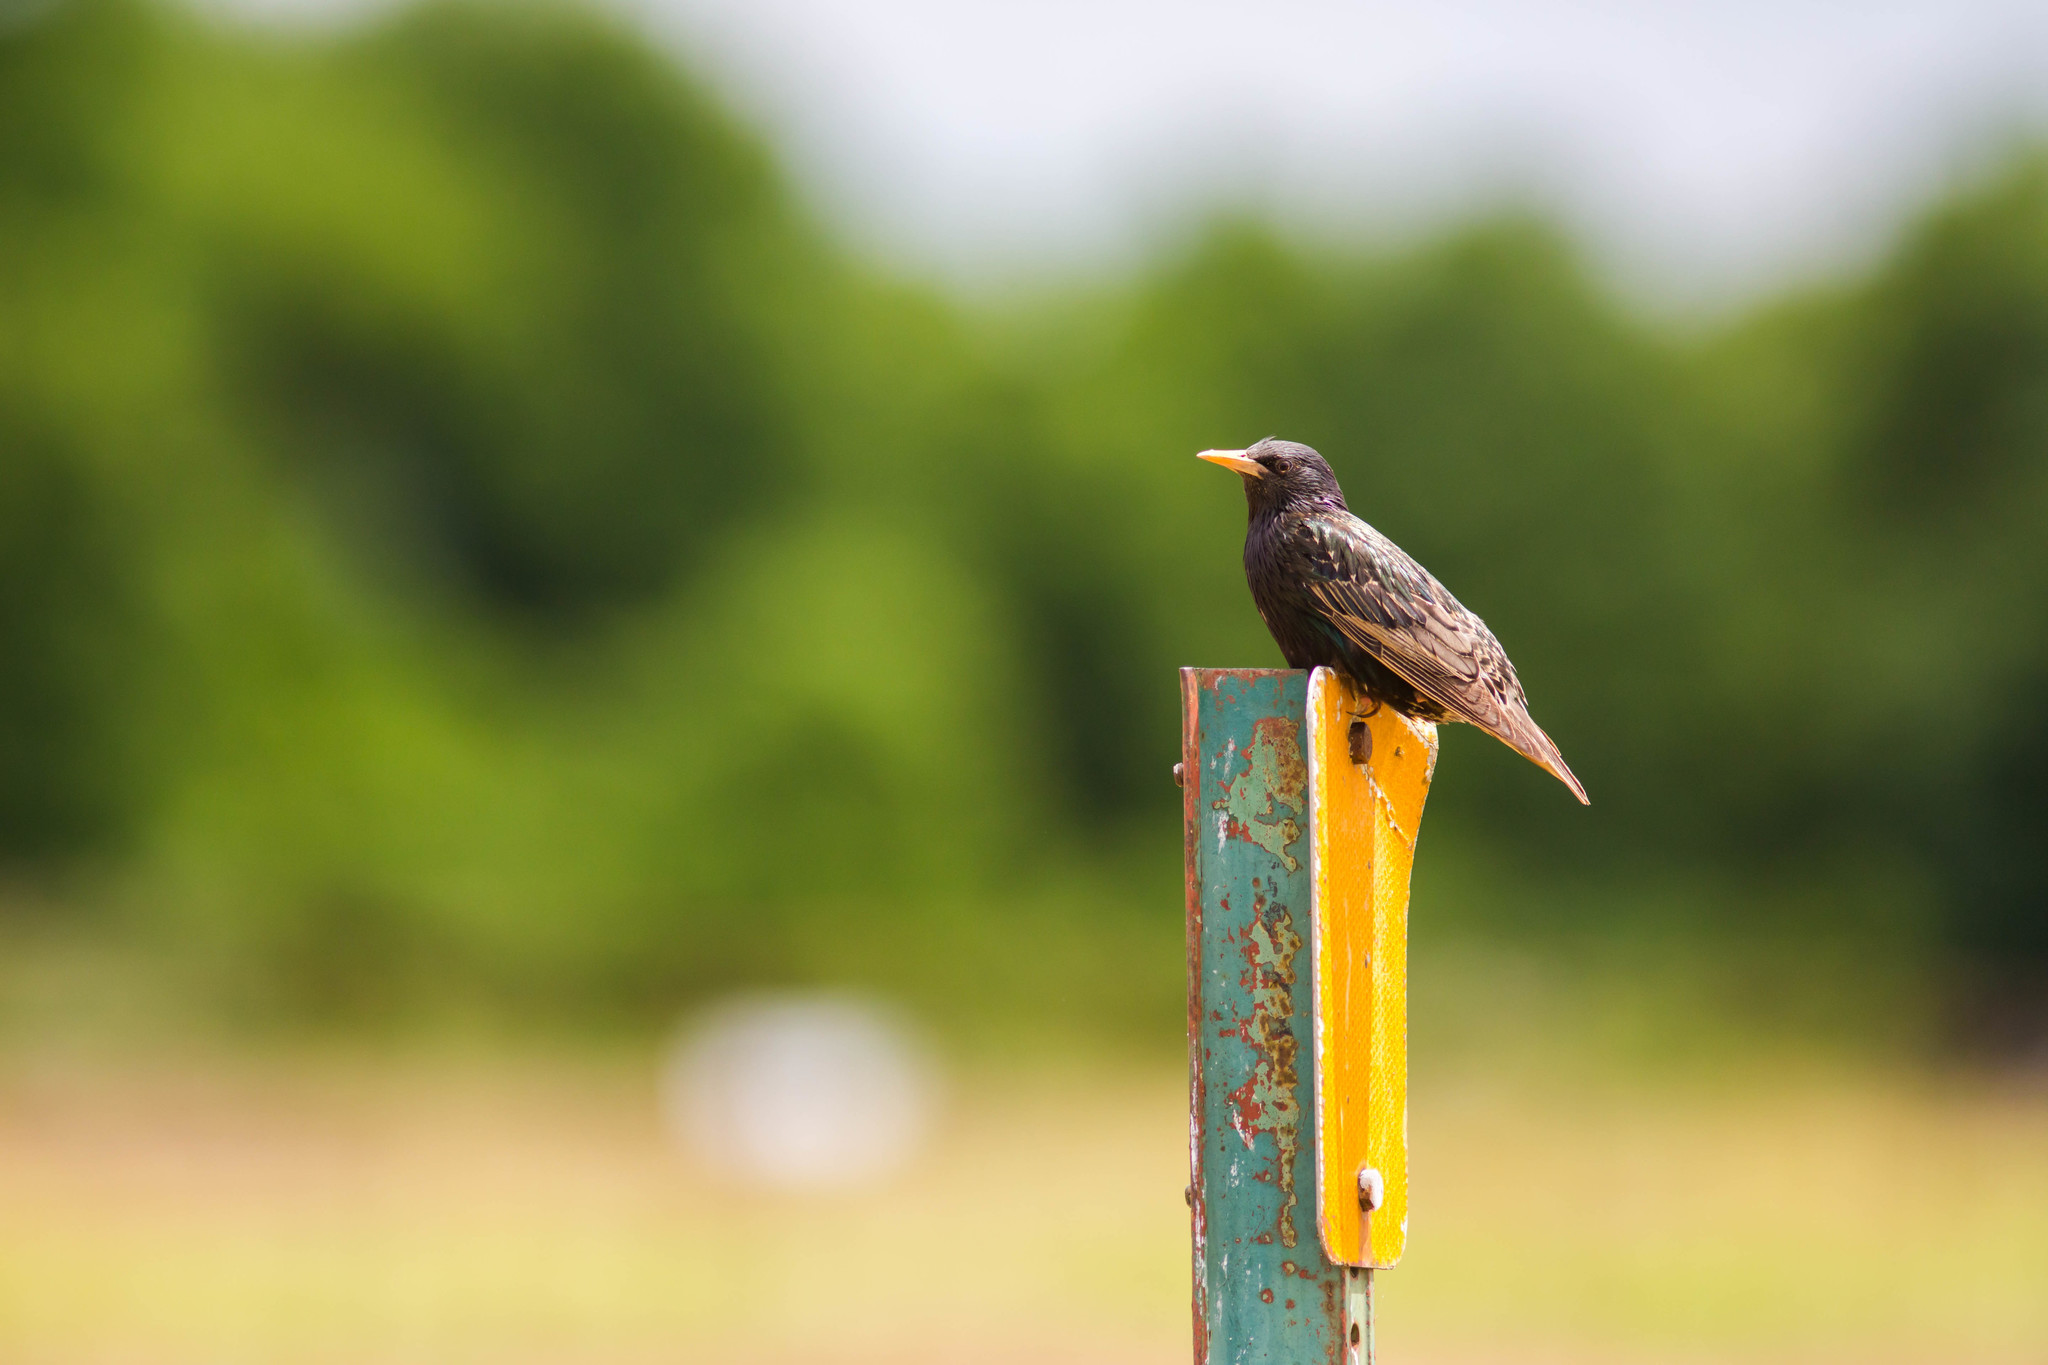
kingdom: Animalia
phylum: Chordata
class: Aves
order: Passeriformes
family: Sturnidae
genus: Sturnus
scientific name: Sturnus vulgaris
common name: Common starling
